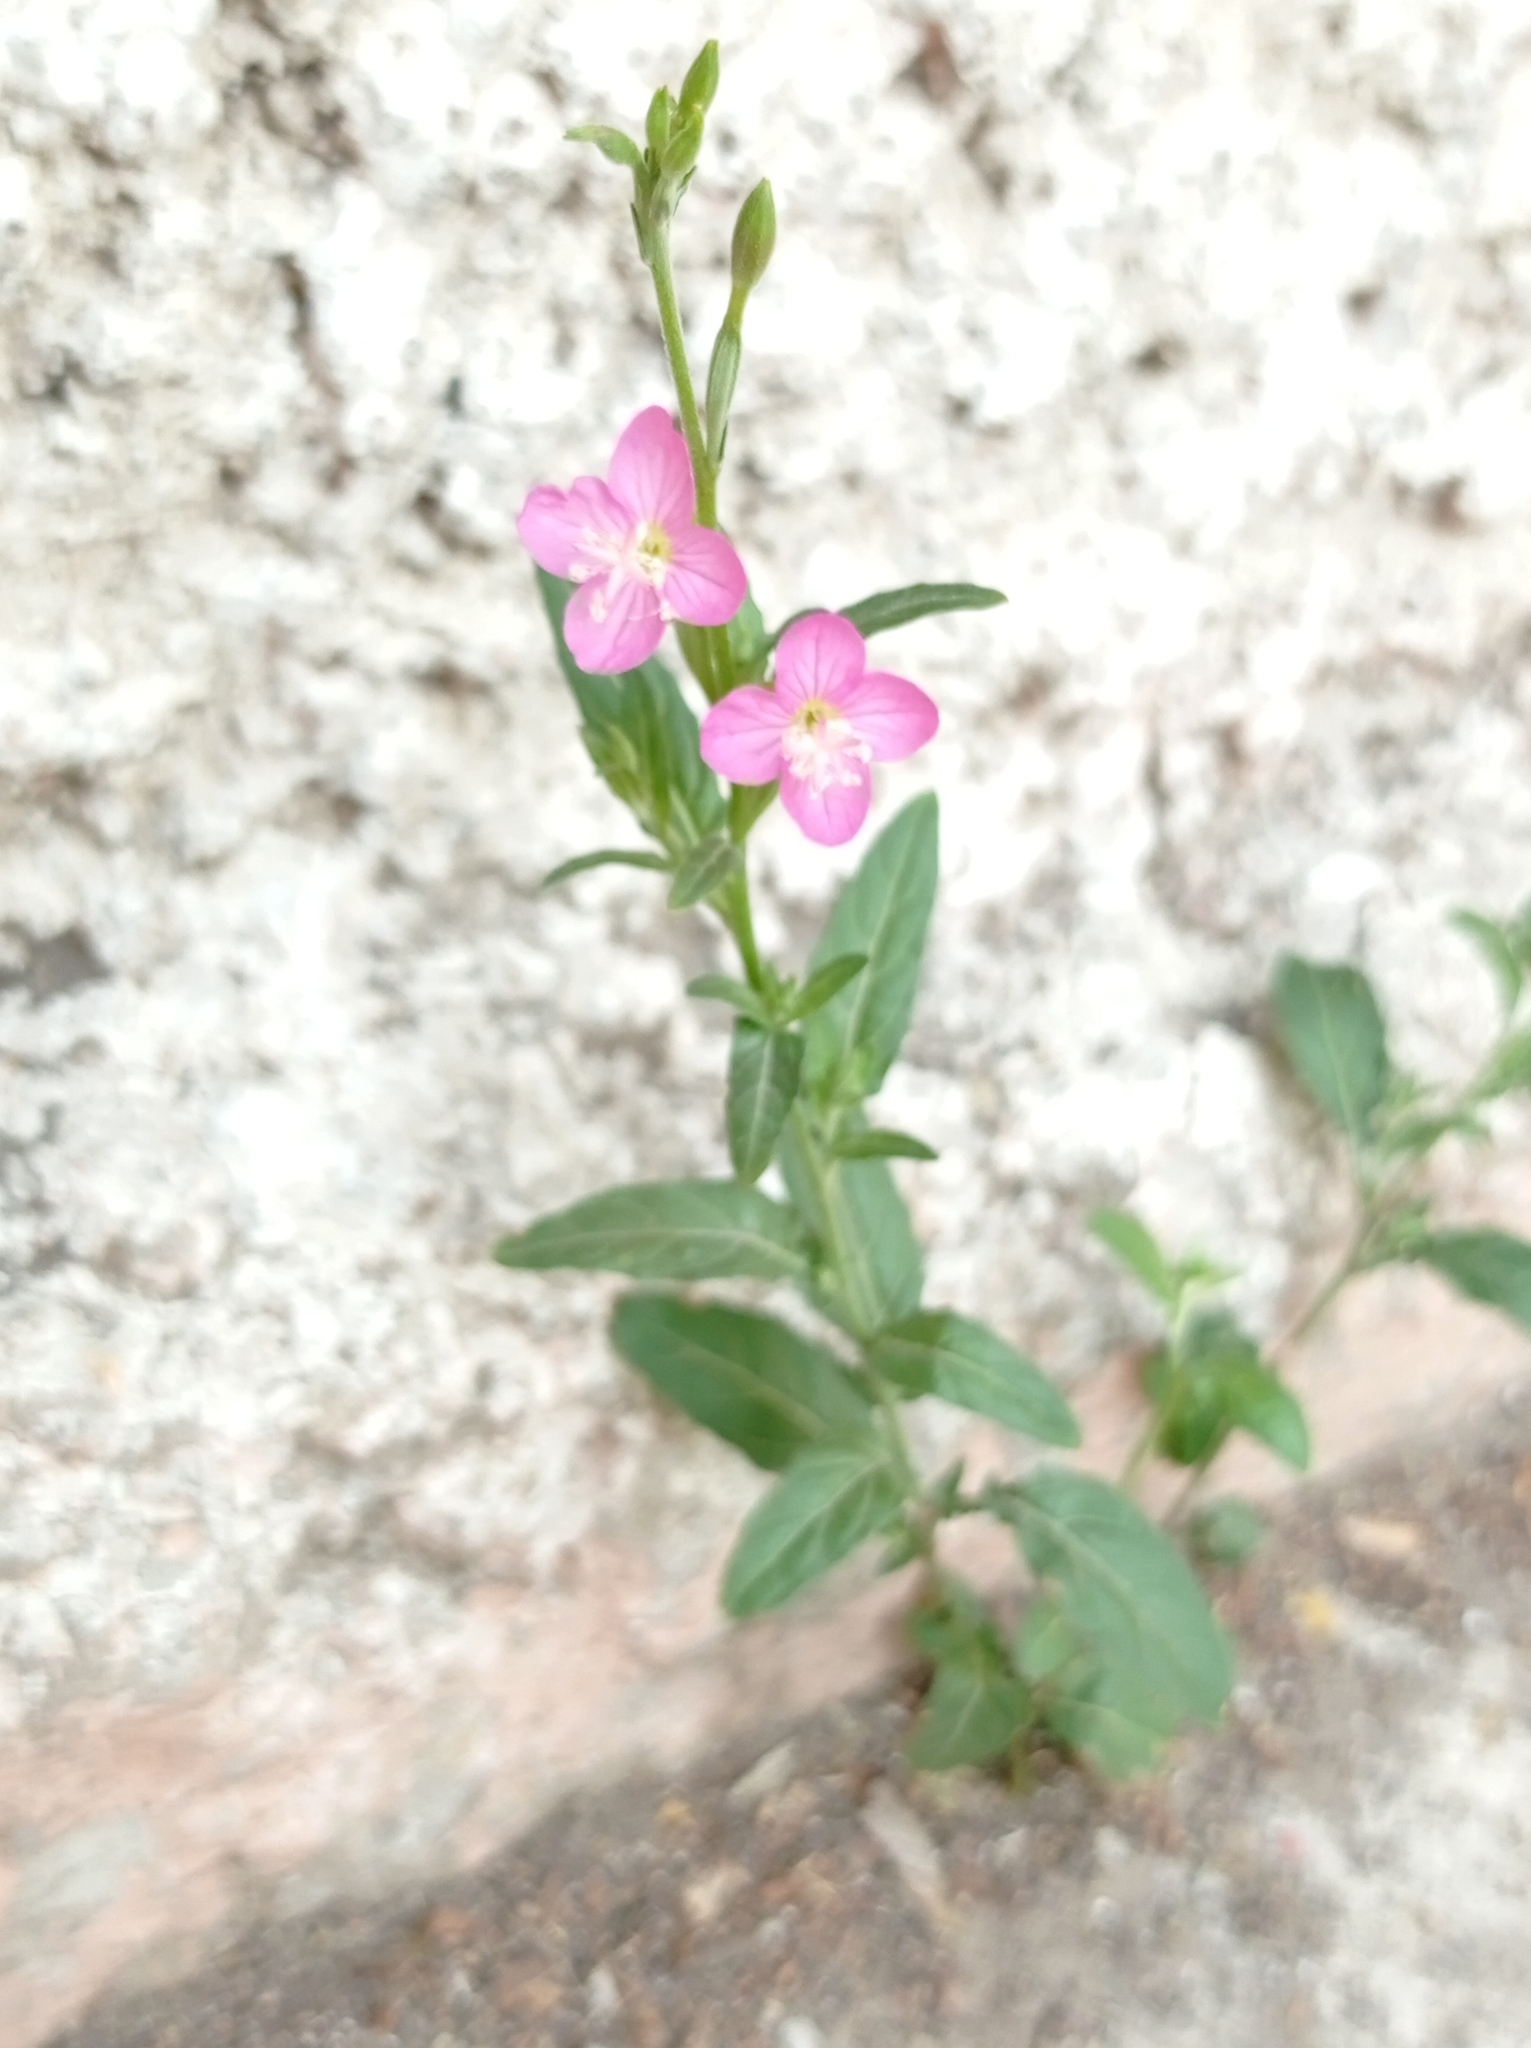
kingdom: Plantae
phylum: Tracheophyta
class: Magnoliopsida
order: Myrtales
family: Onagraceae
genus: Oenothera
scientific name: Oenothera rosea
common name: Rosy evening-primrose
